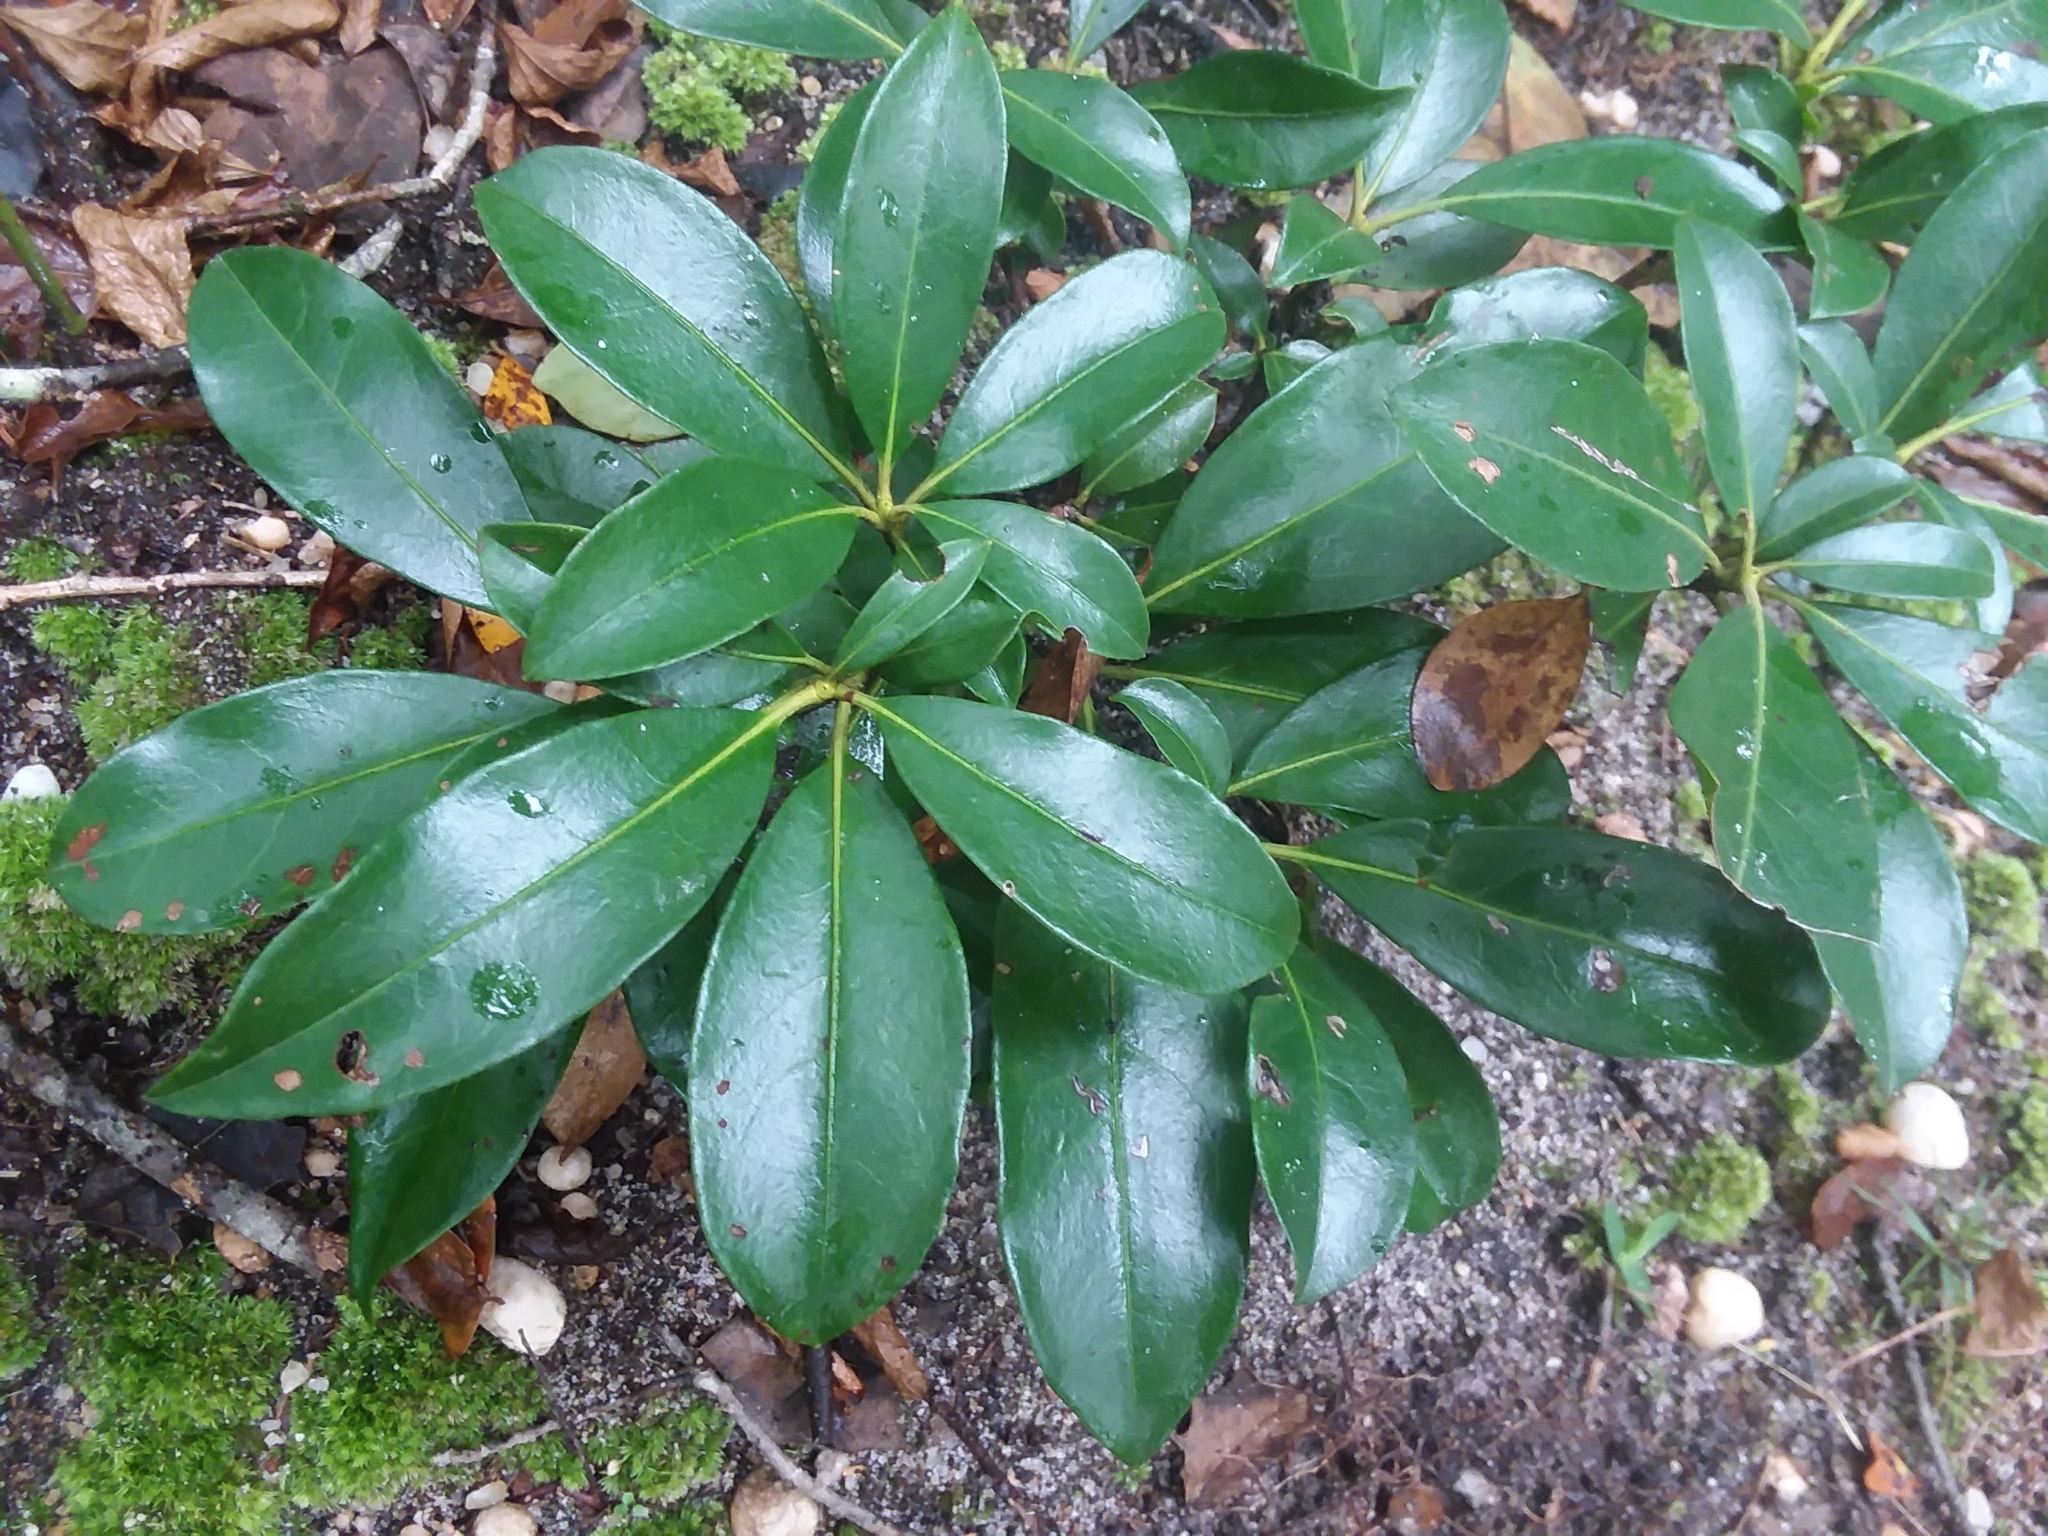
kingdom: Plantae
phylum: Tracheophyta
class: Magnoliopsida
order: Ericales
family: Ericaceae
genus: Kalmia
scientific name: Kalmia latifolia
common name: Mountain-laurel
